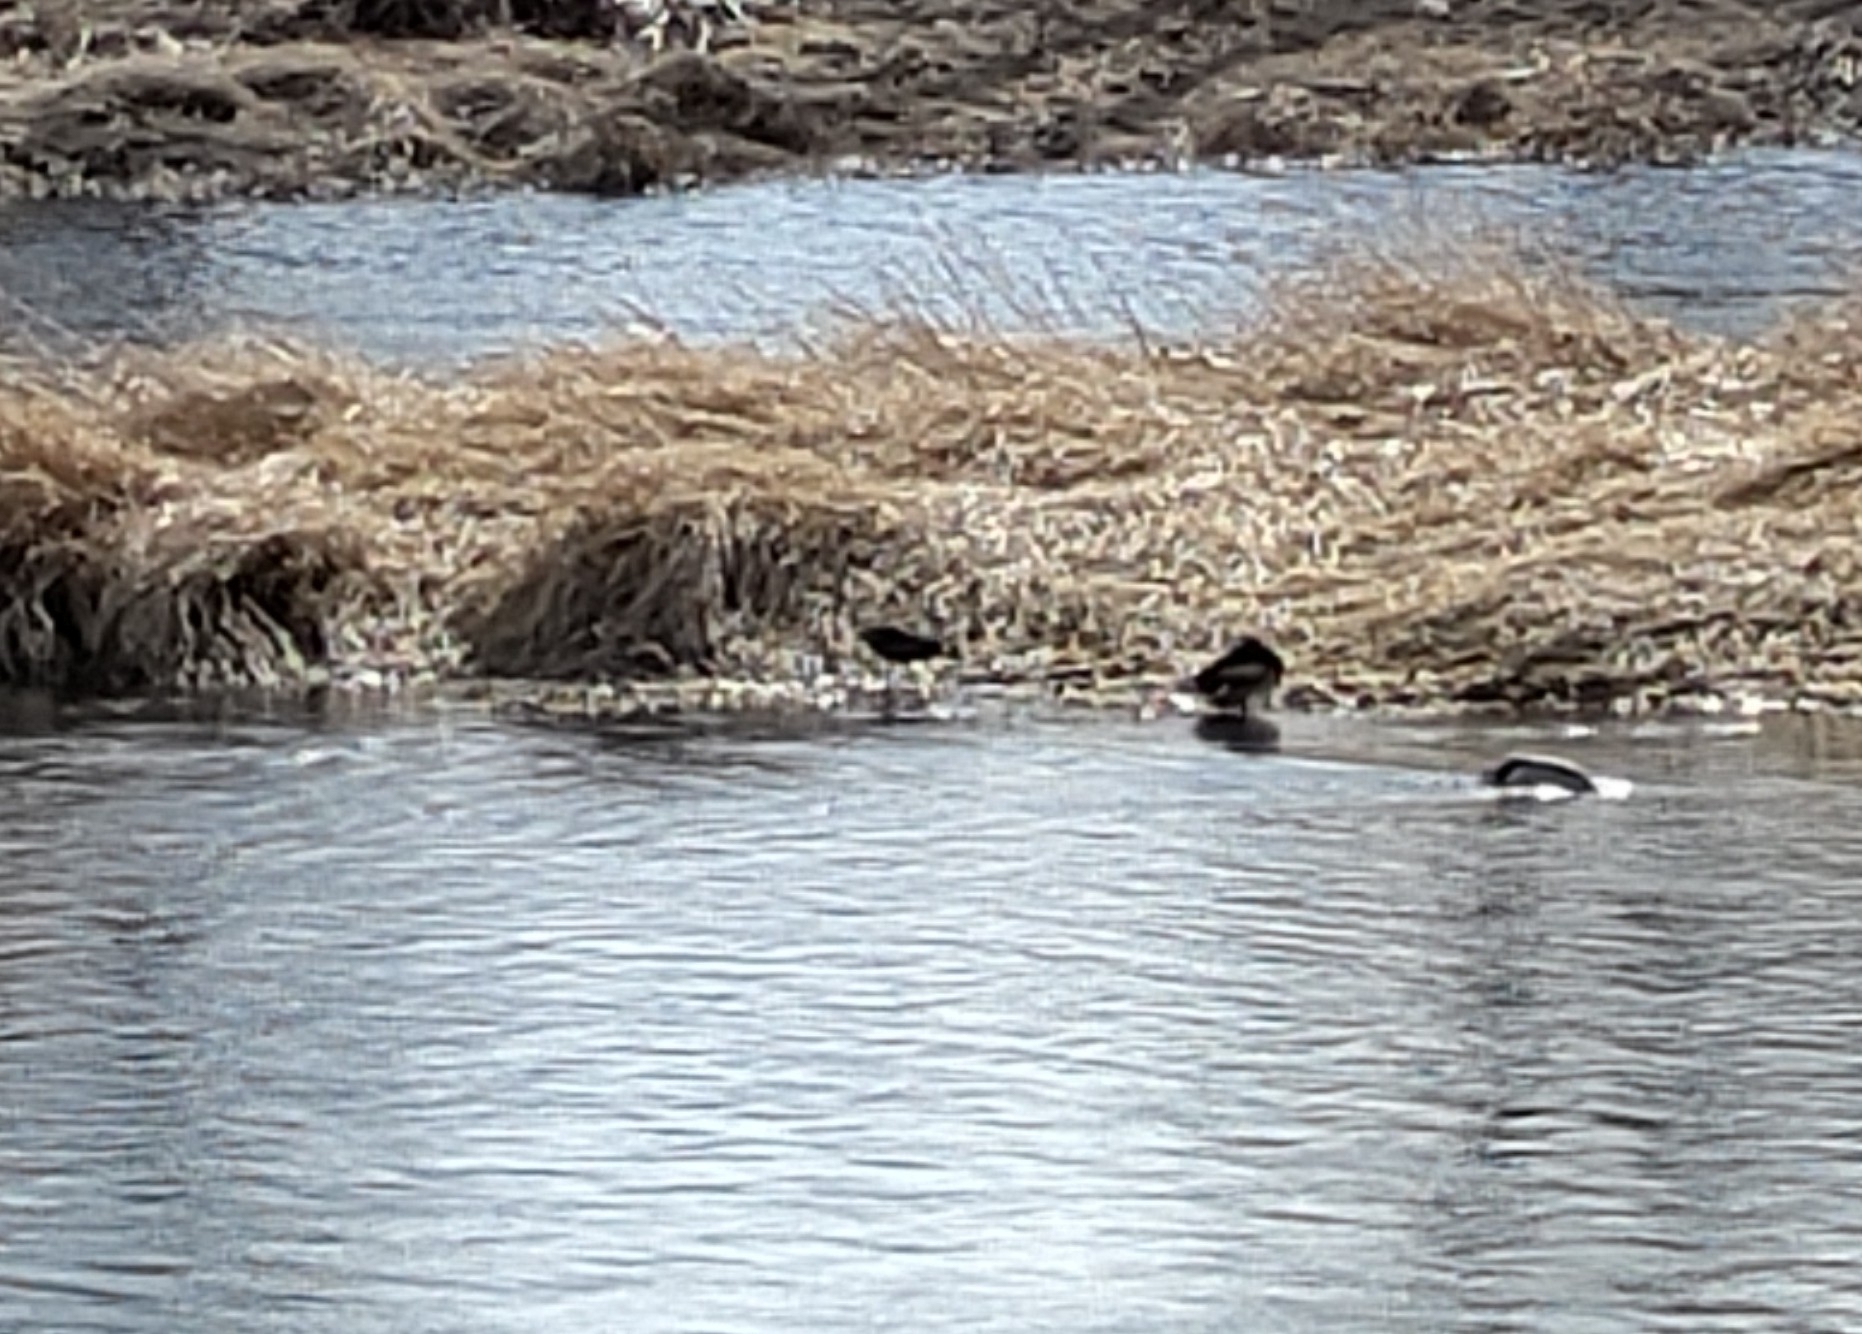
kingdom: Animalia
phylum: Chordata
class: Aves
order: Gruiformes
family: Rallidae
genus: Gallinula
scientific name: Gallinula chloropus
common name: Common moorhen
